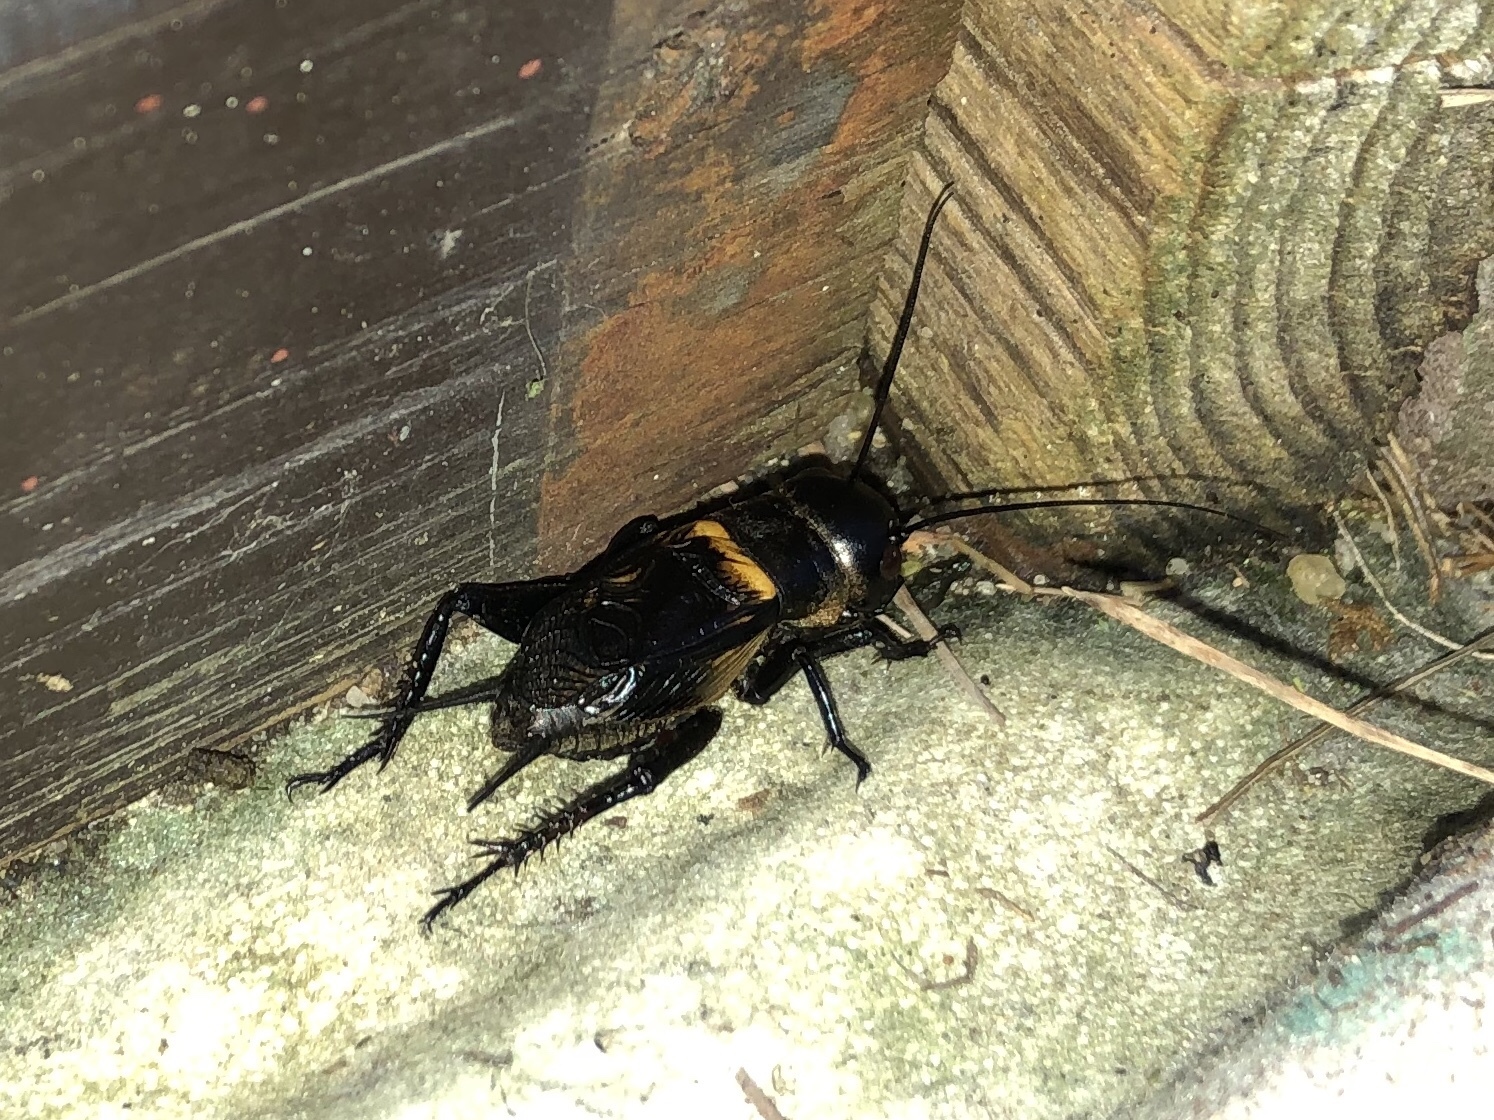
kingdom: Animalia
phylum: Arthropoda
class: Insecta
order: Orthoptera
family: Gryllidae
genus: Gryllus
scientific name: Gryllus campestris
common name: Field cricket
